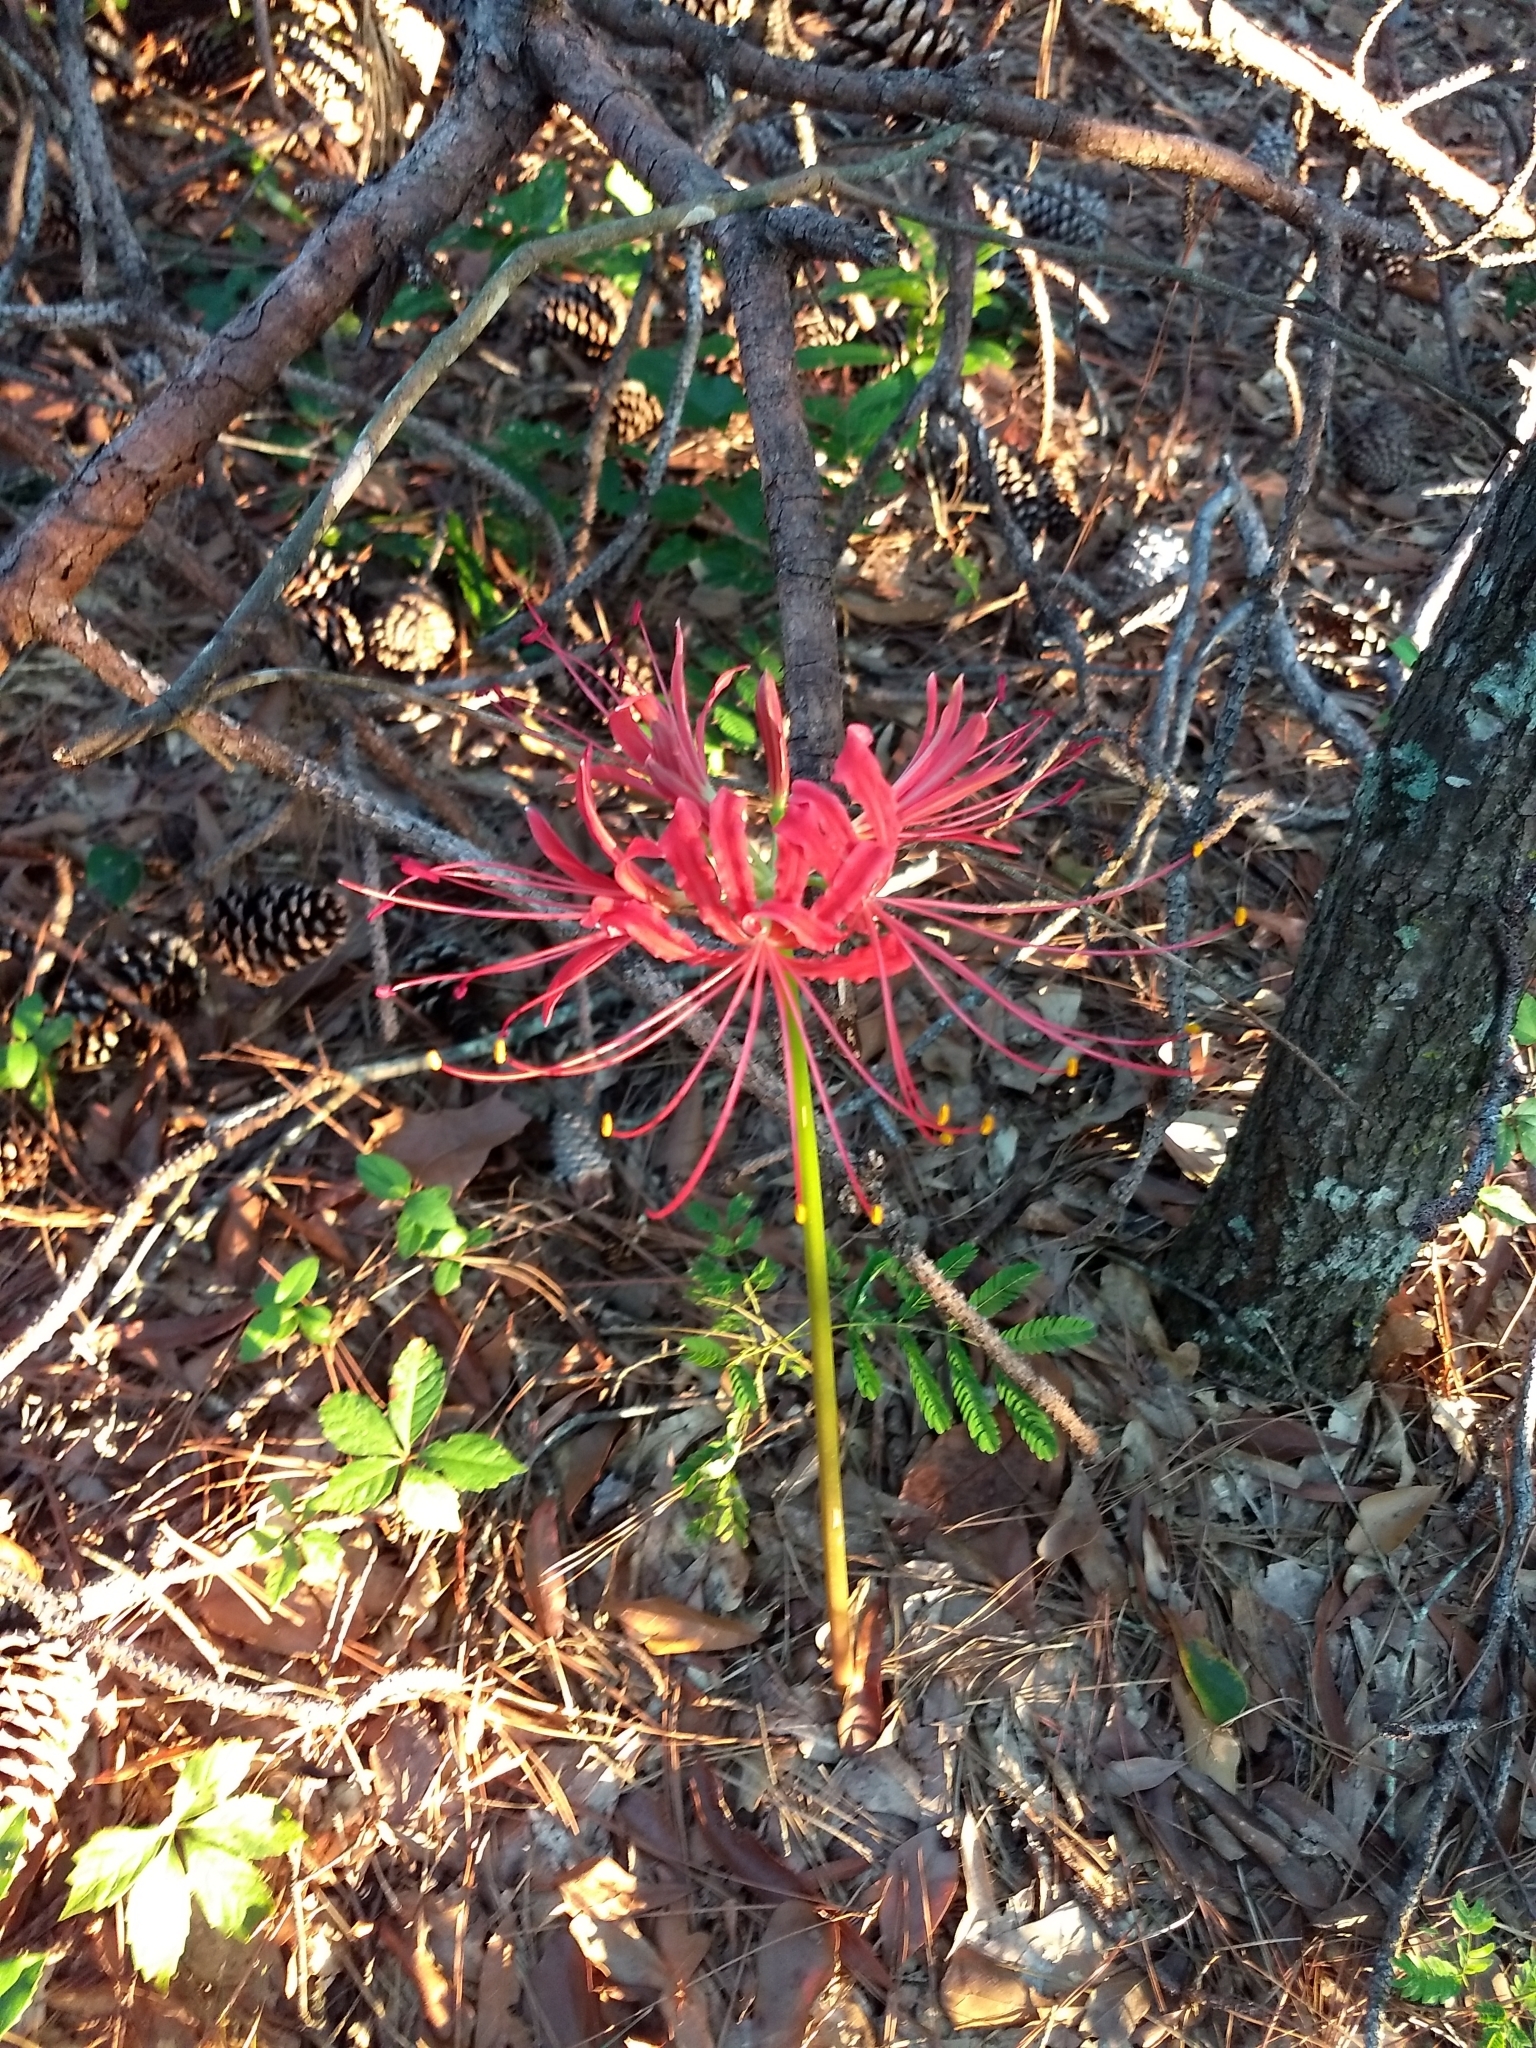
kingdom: Plantae
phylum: Tracheophyta
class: Liliopsida
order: Asparagales
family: Amaryllidaceae
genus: Lycoris
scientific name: Lycoris radiata
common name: Red spider lily
